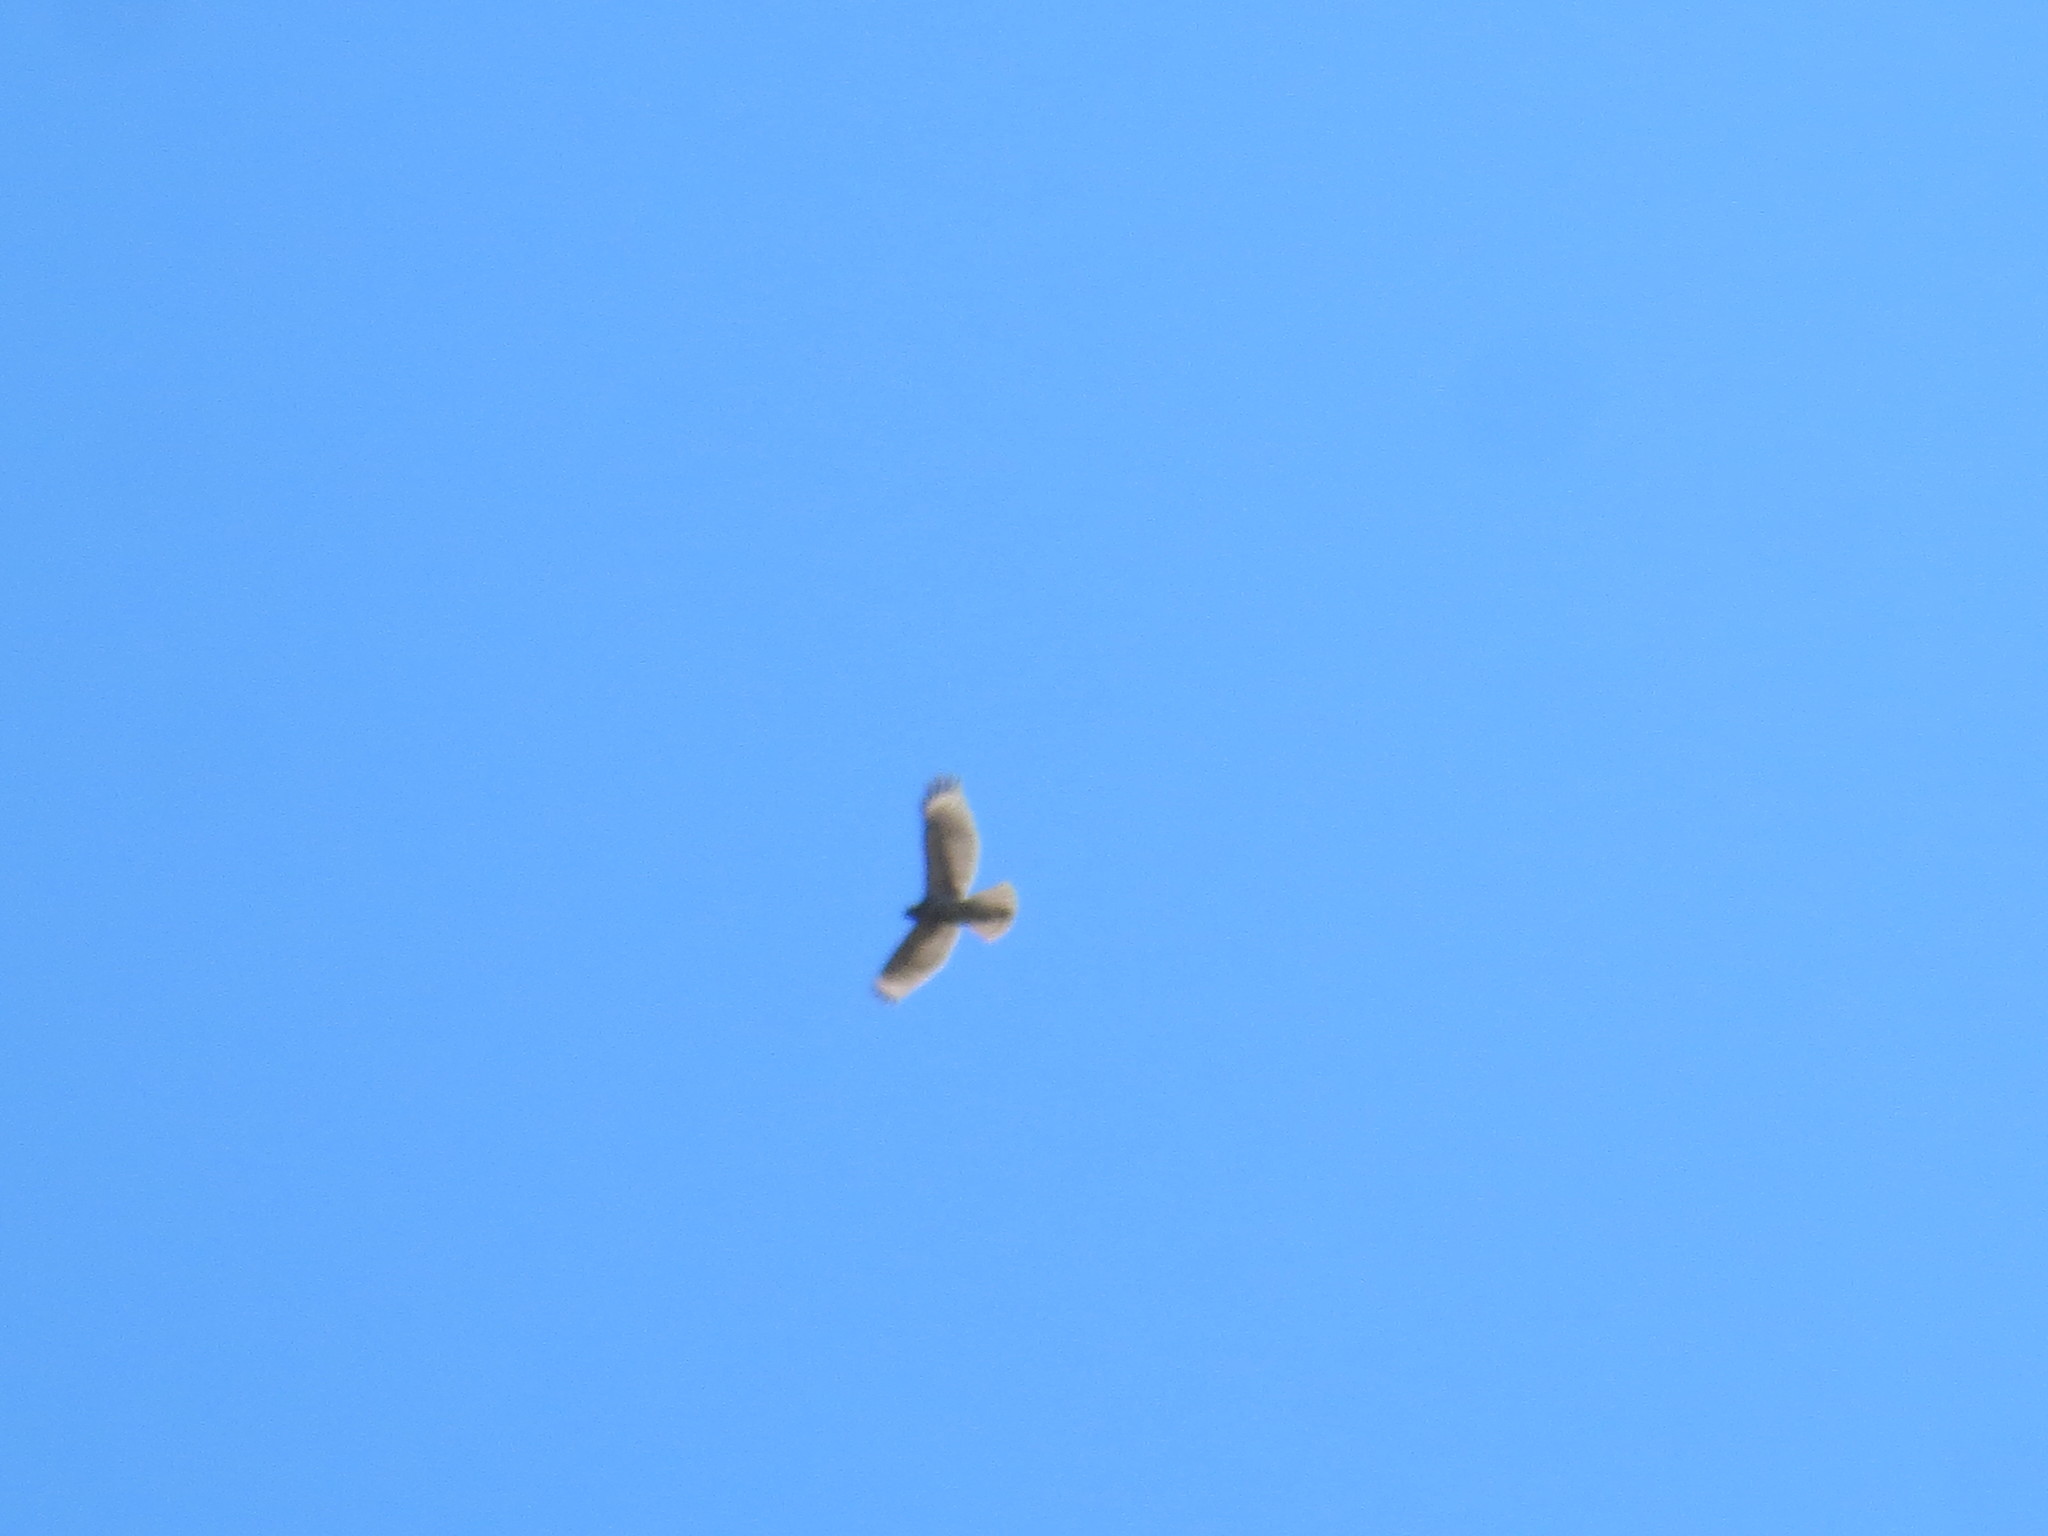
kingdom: Animalia
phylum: Chordata
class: Aves
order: Accipitriformes
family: Accipitridae
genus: Buteo
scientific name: Buteo lineatus
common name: Red-shouldered hawk
